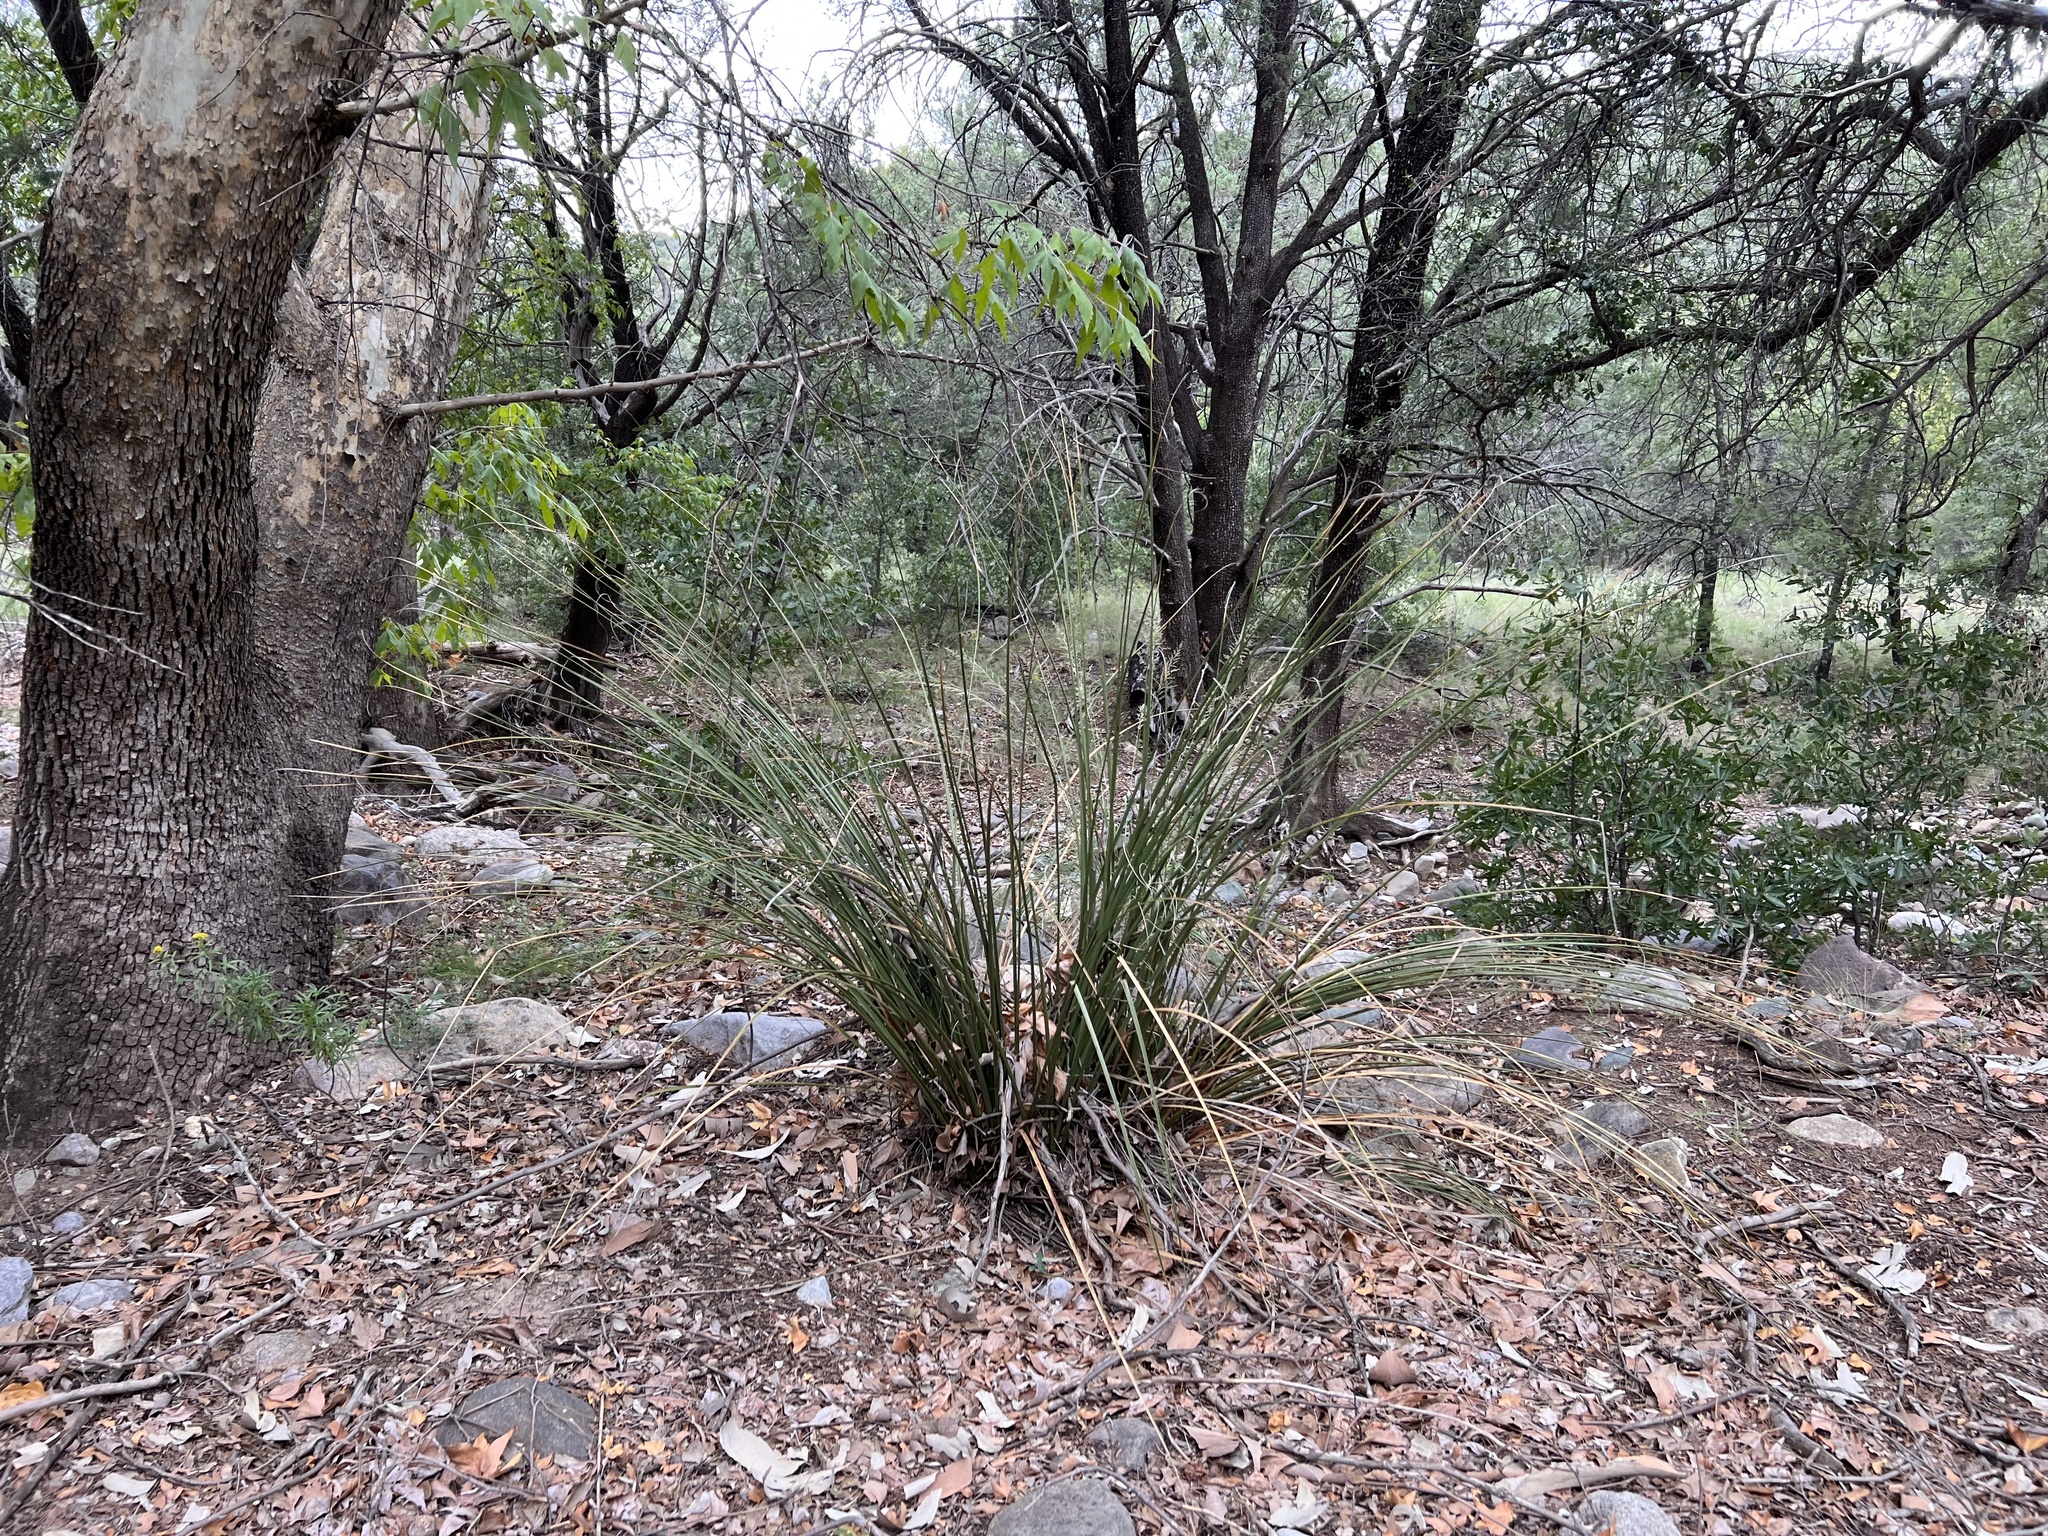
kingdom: Plantae
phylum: Tracheophyta
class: Liliopsida
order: Asparagales
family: Asparagaceae
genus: Nolina
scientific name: Nolina microcarpa
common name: Bear-grass
